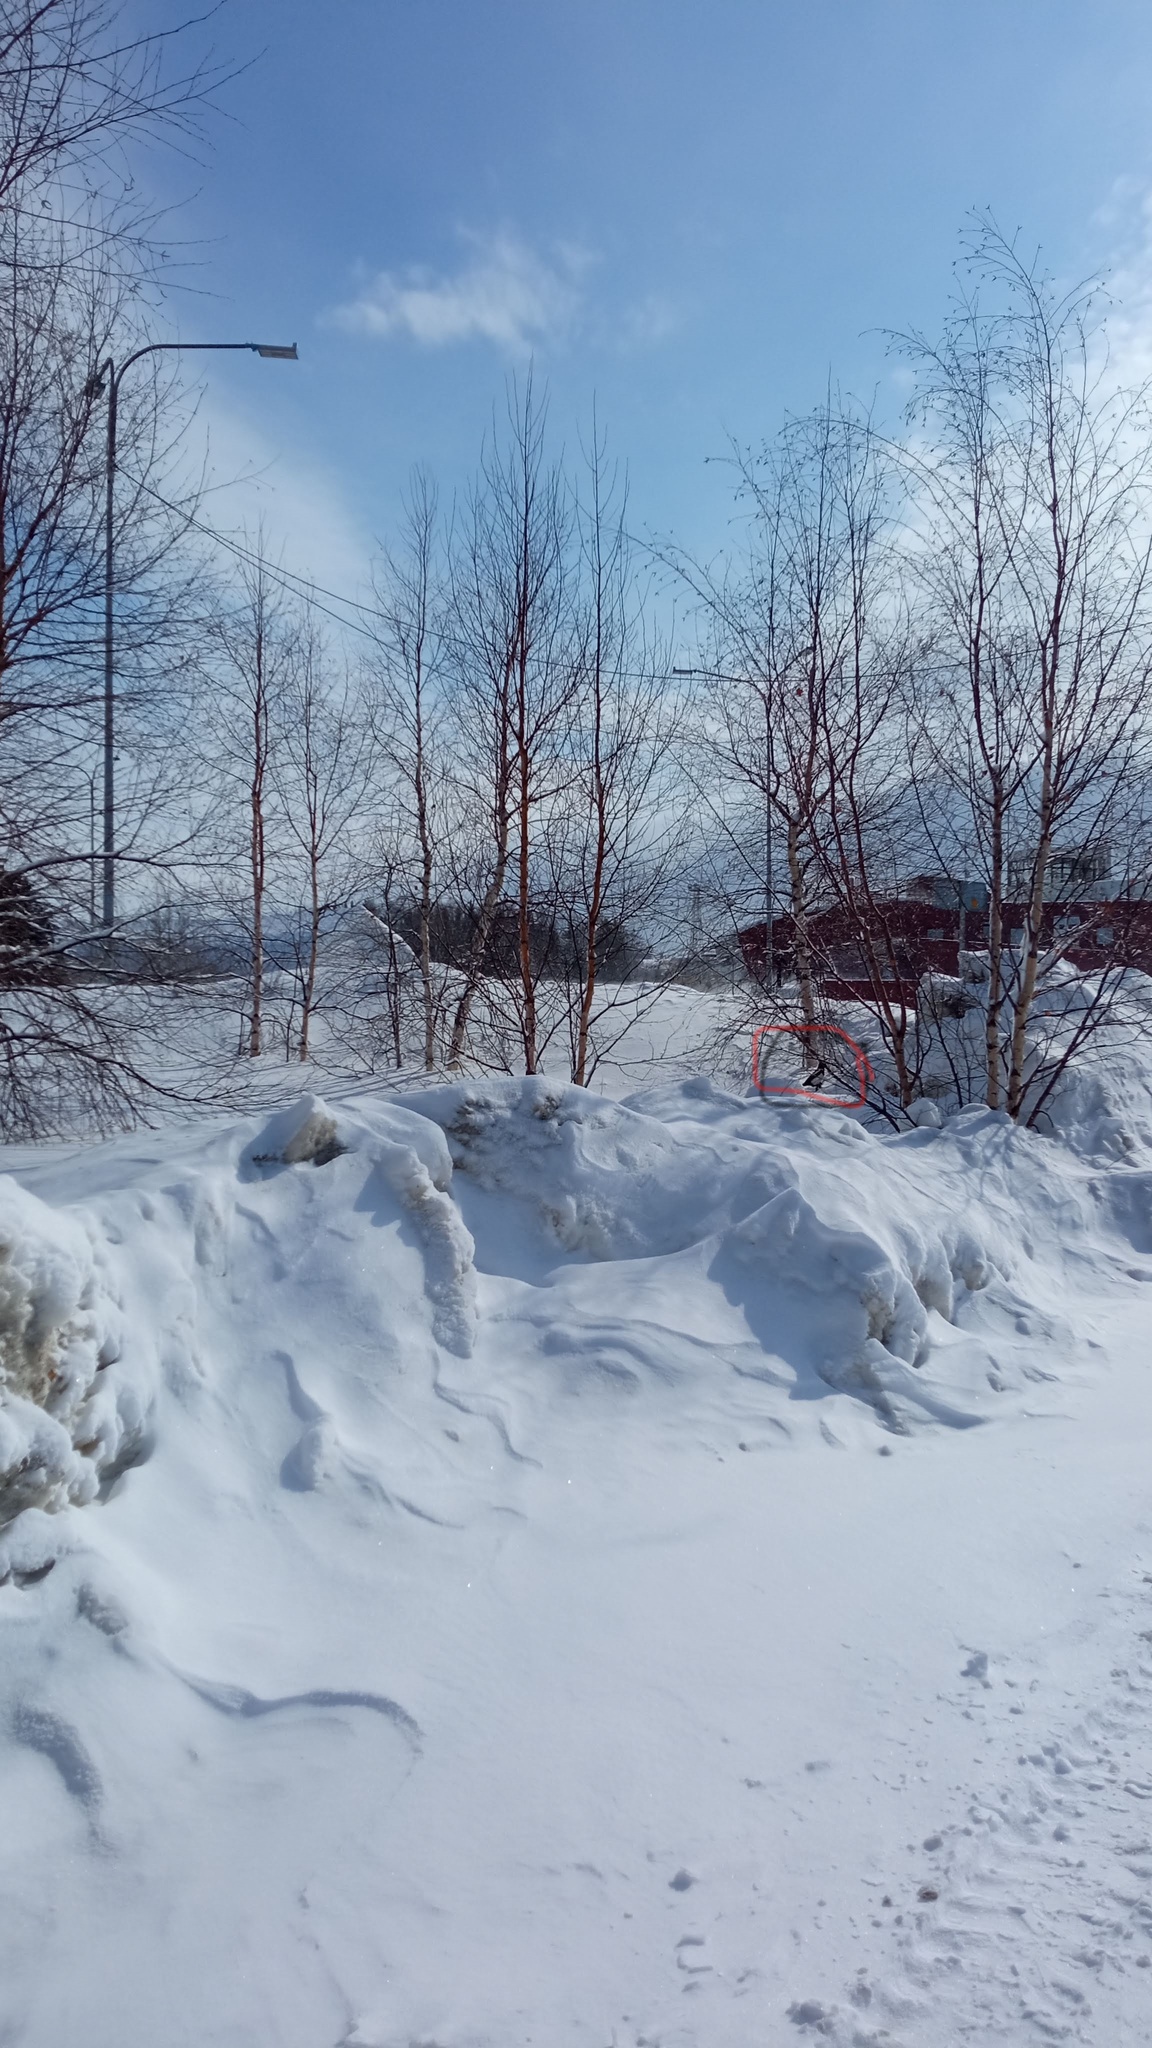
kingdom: Animalia
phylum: Chordata
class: Aves
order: Passeriformes
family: Corvidae
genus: Pica
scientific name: Pica pica
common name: Eurasian magpie
